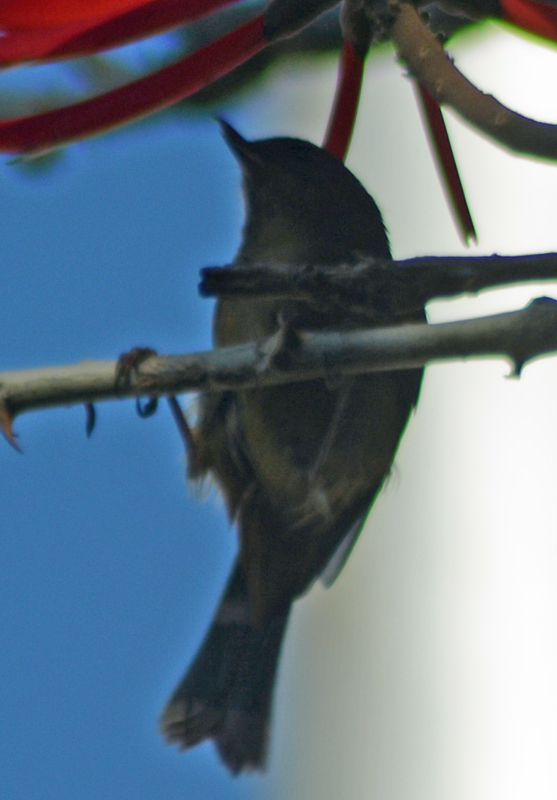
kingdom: Animalia
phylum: Chordata
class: Aves
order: Passeriformes
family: Thraupidae
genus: Diglossa
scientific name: Diglossa baritula
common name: Cinnamon-bellied flowerpiercer
